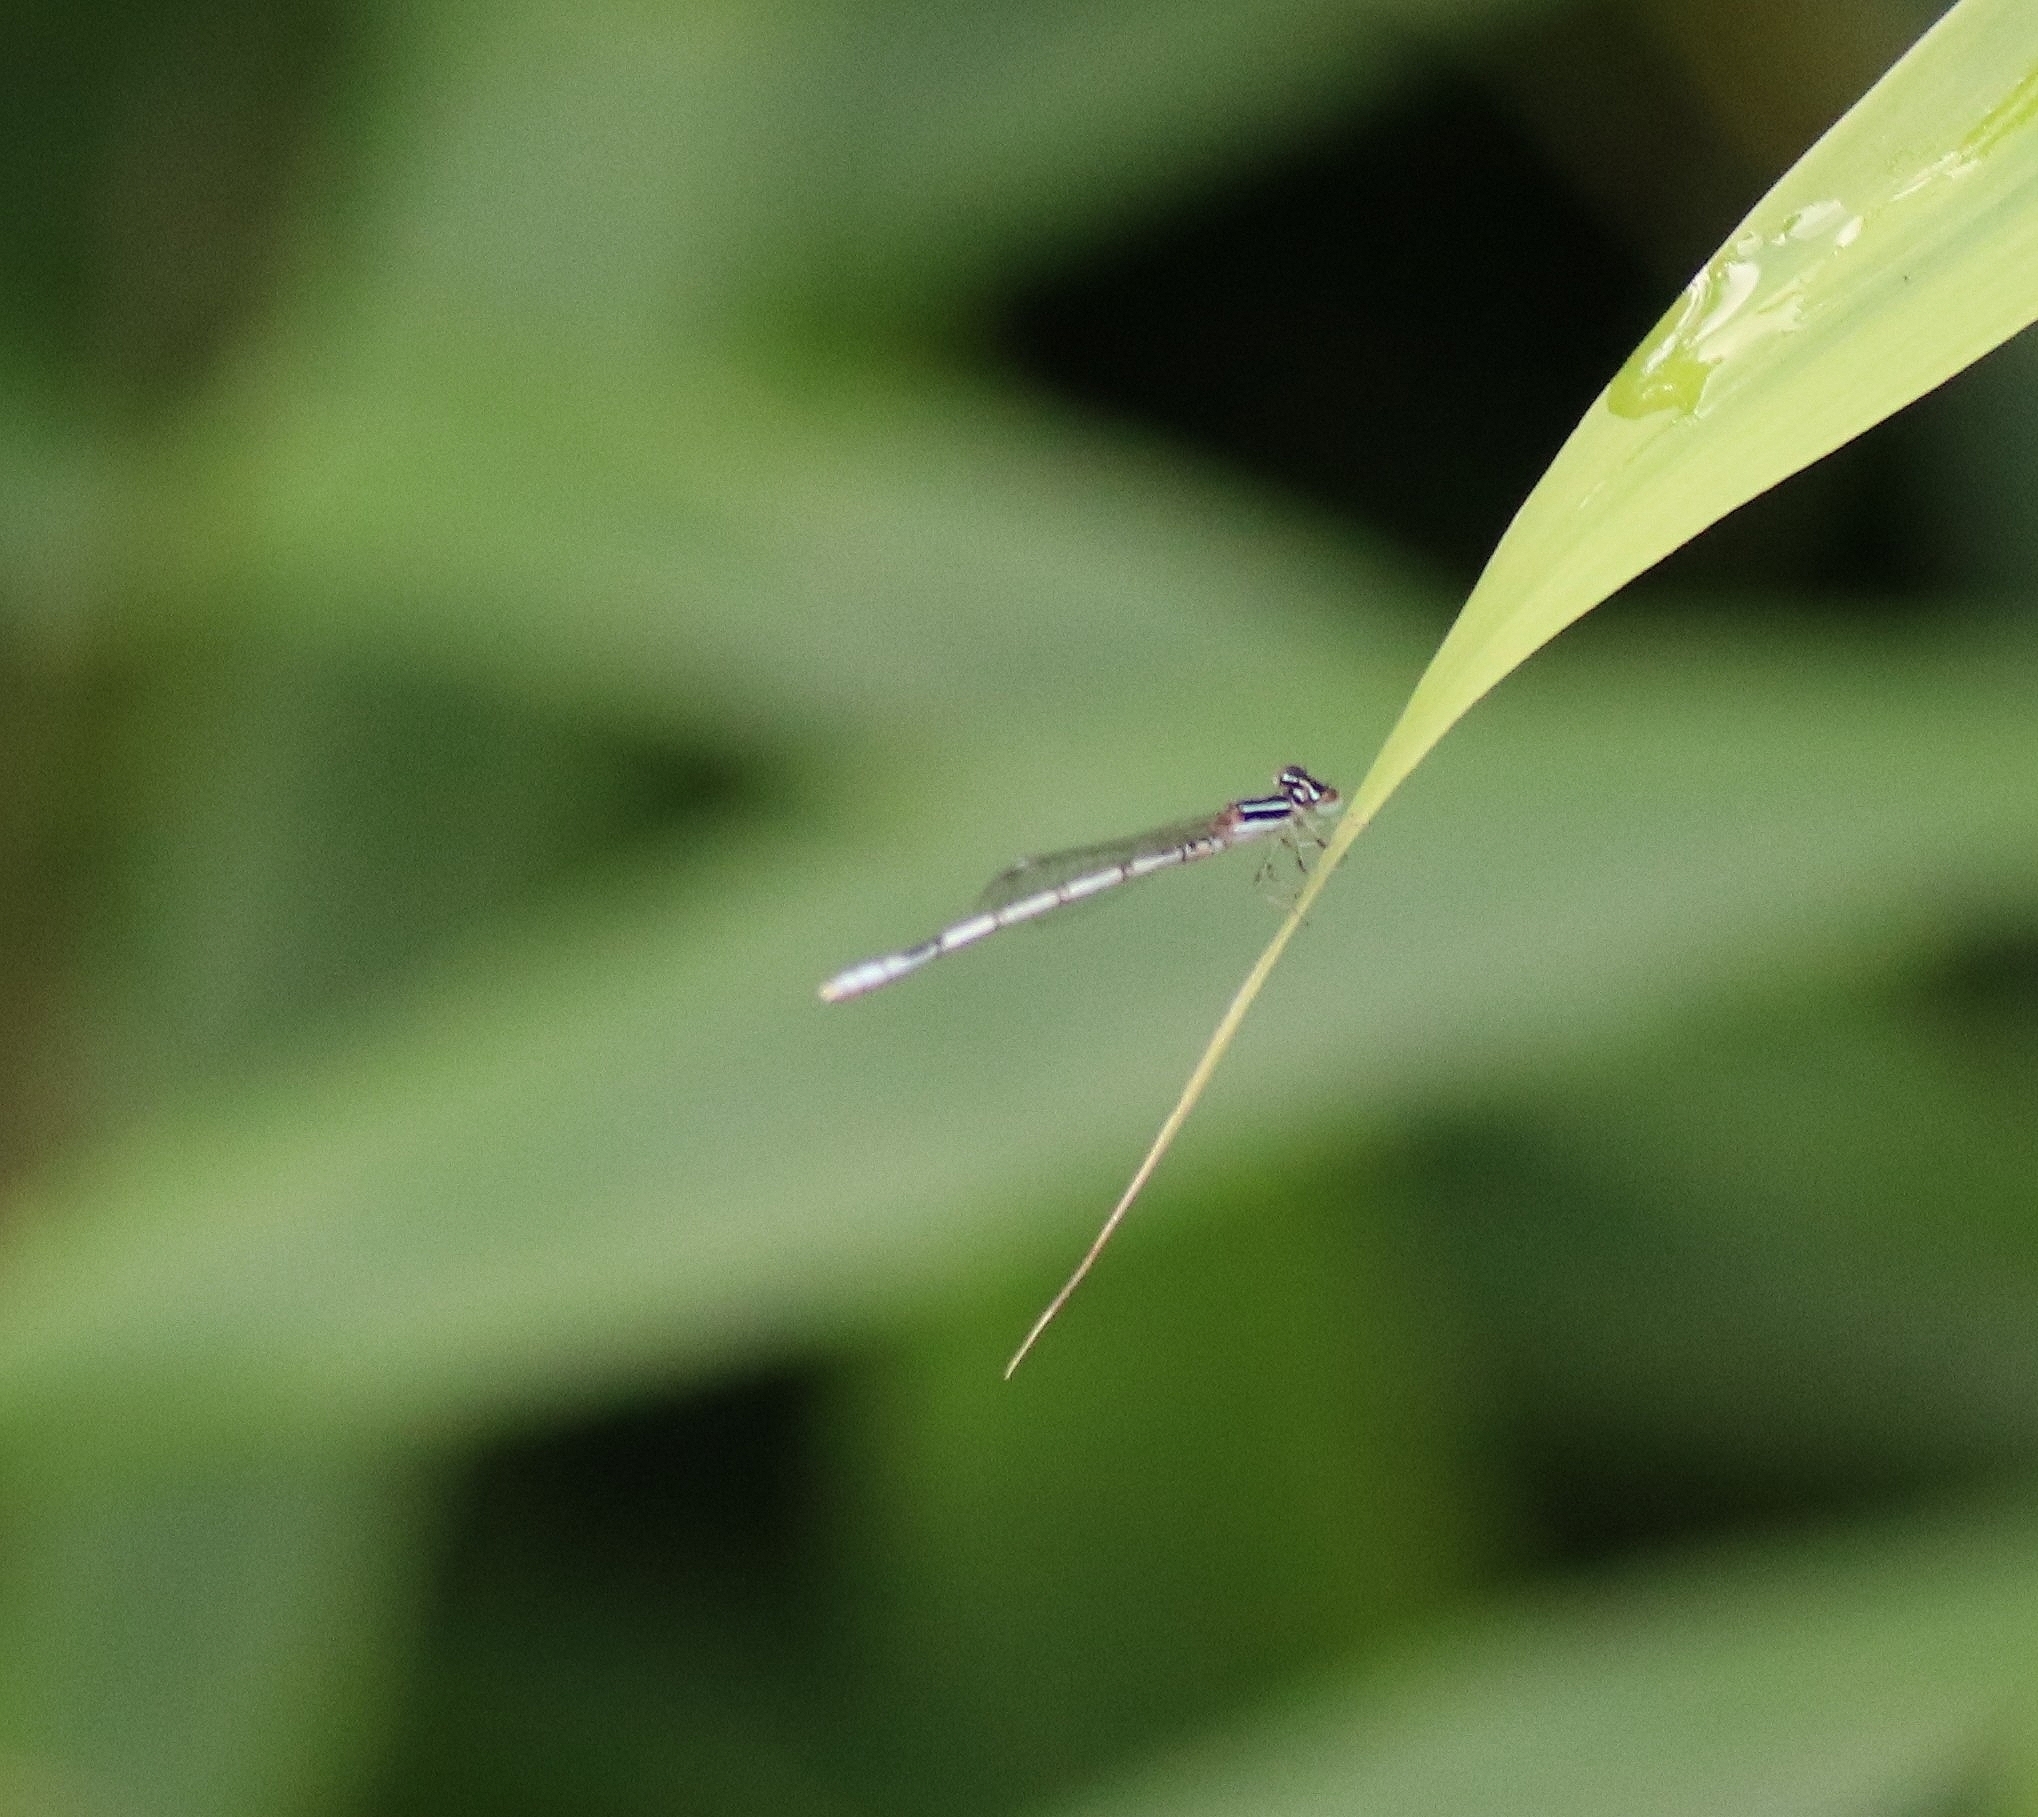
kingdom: Animalia
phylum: Arthropoda
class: Insecta
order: Odonata
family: Coenagrionidae
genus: Agriocnemis
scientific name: Agriocnemis pieris
